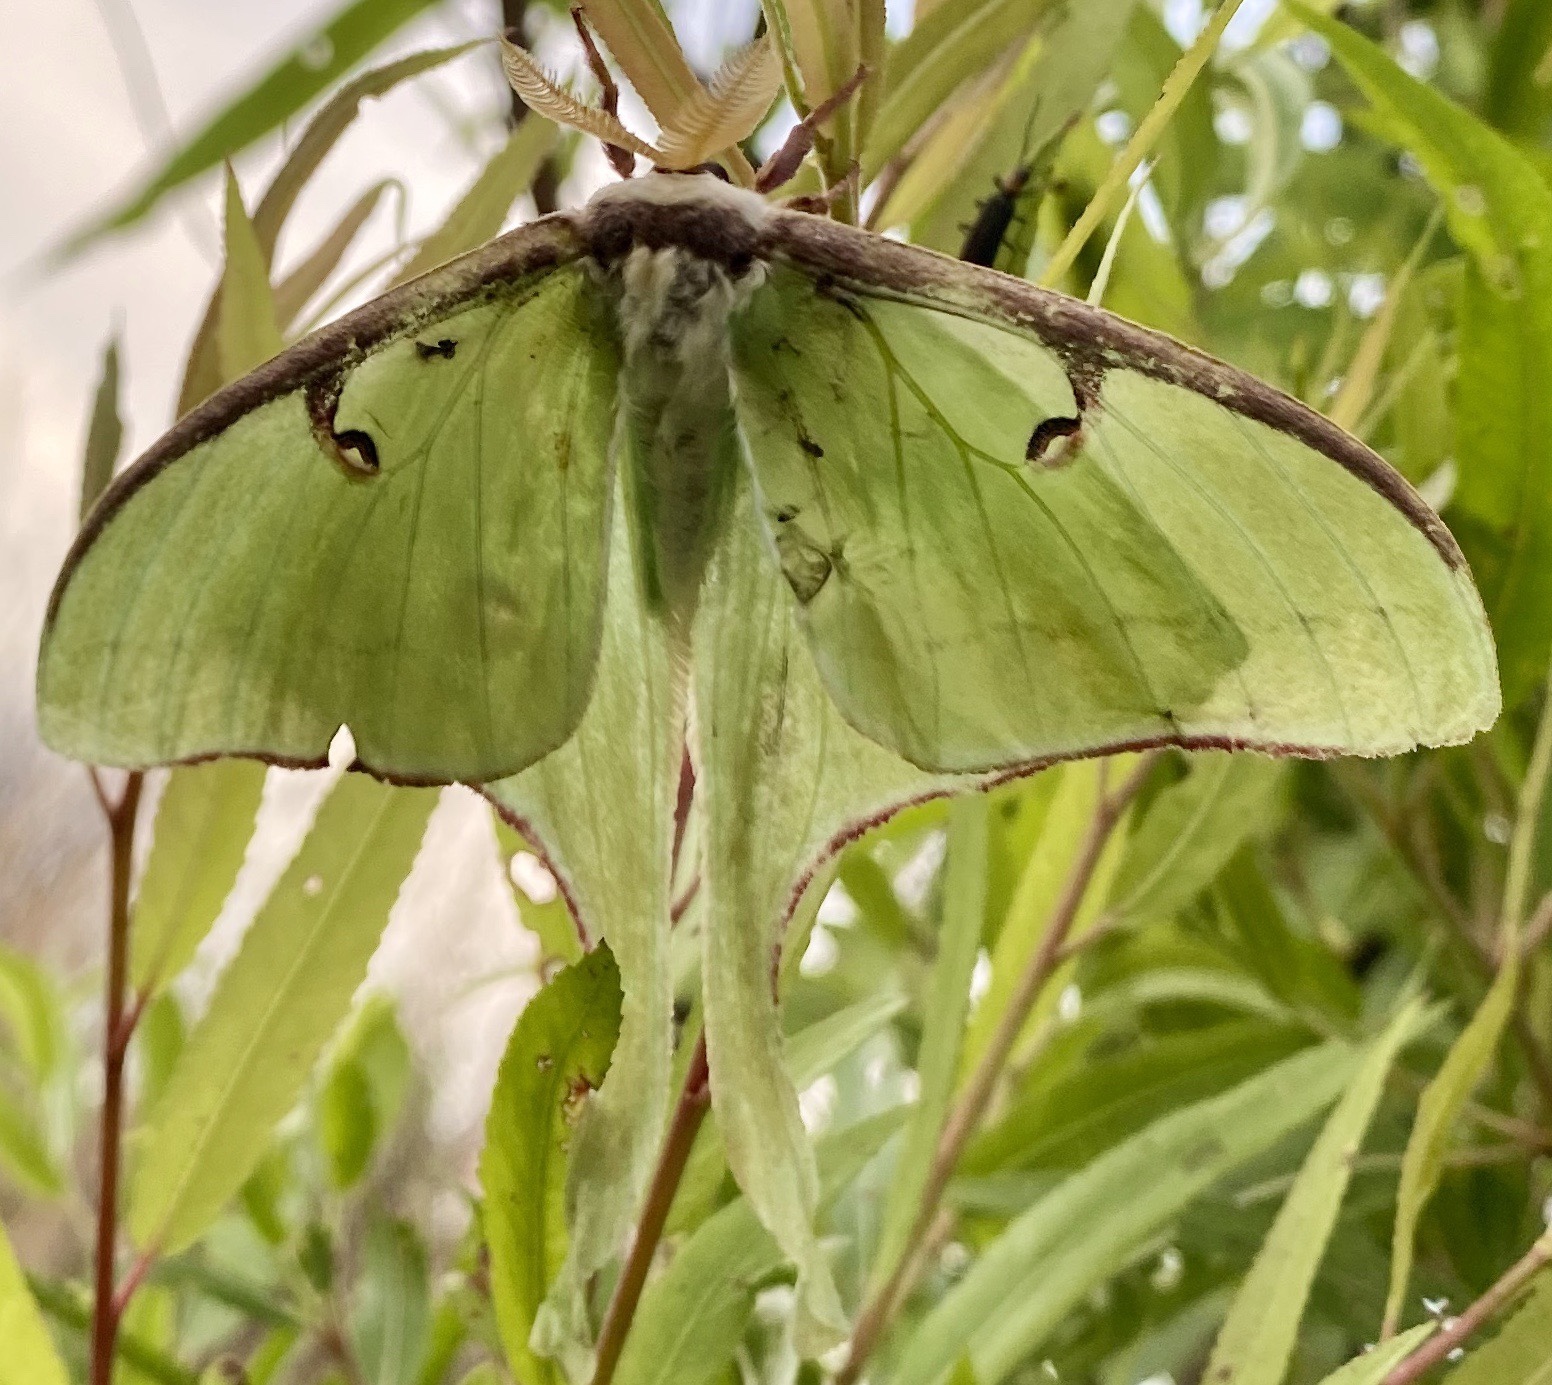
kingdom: Animalia
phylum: Arthropoda
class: Insecta
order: Lepidoptera
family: Saturniidae
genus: Actias
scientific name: Actias luna
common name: Luna moth
